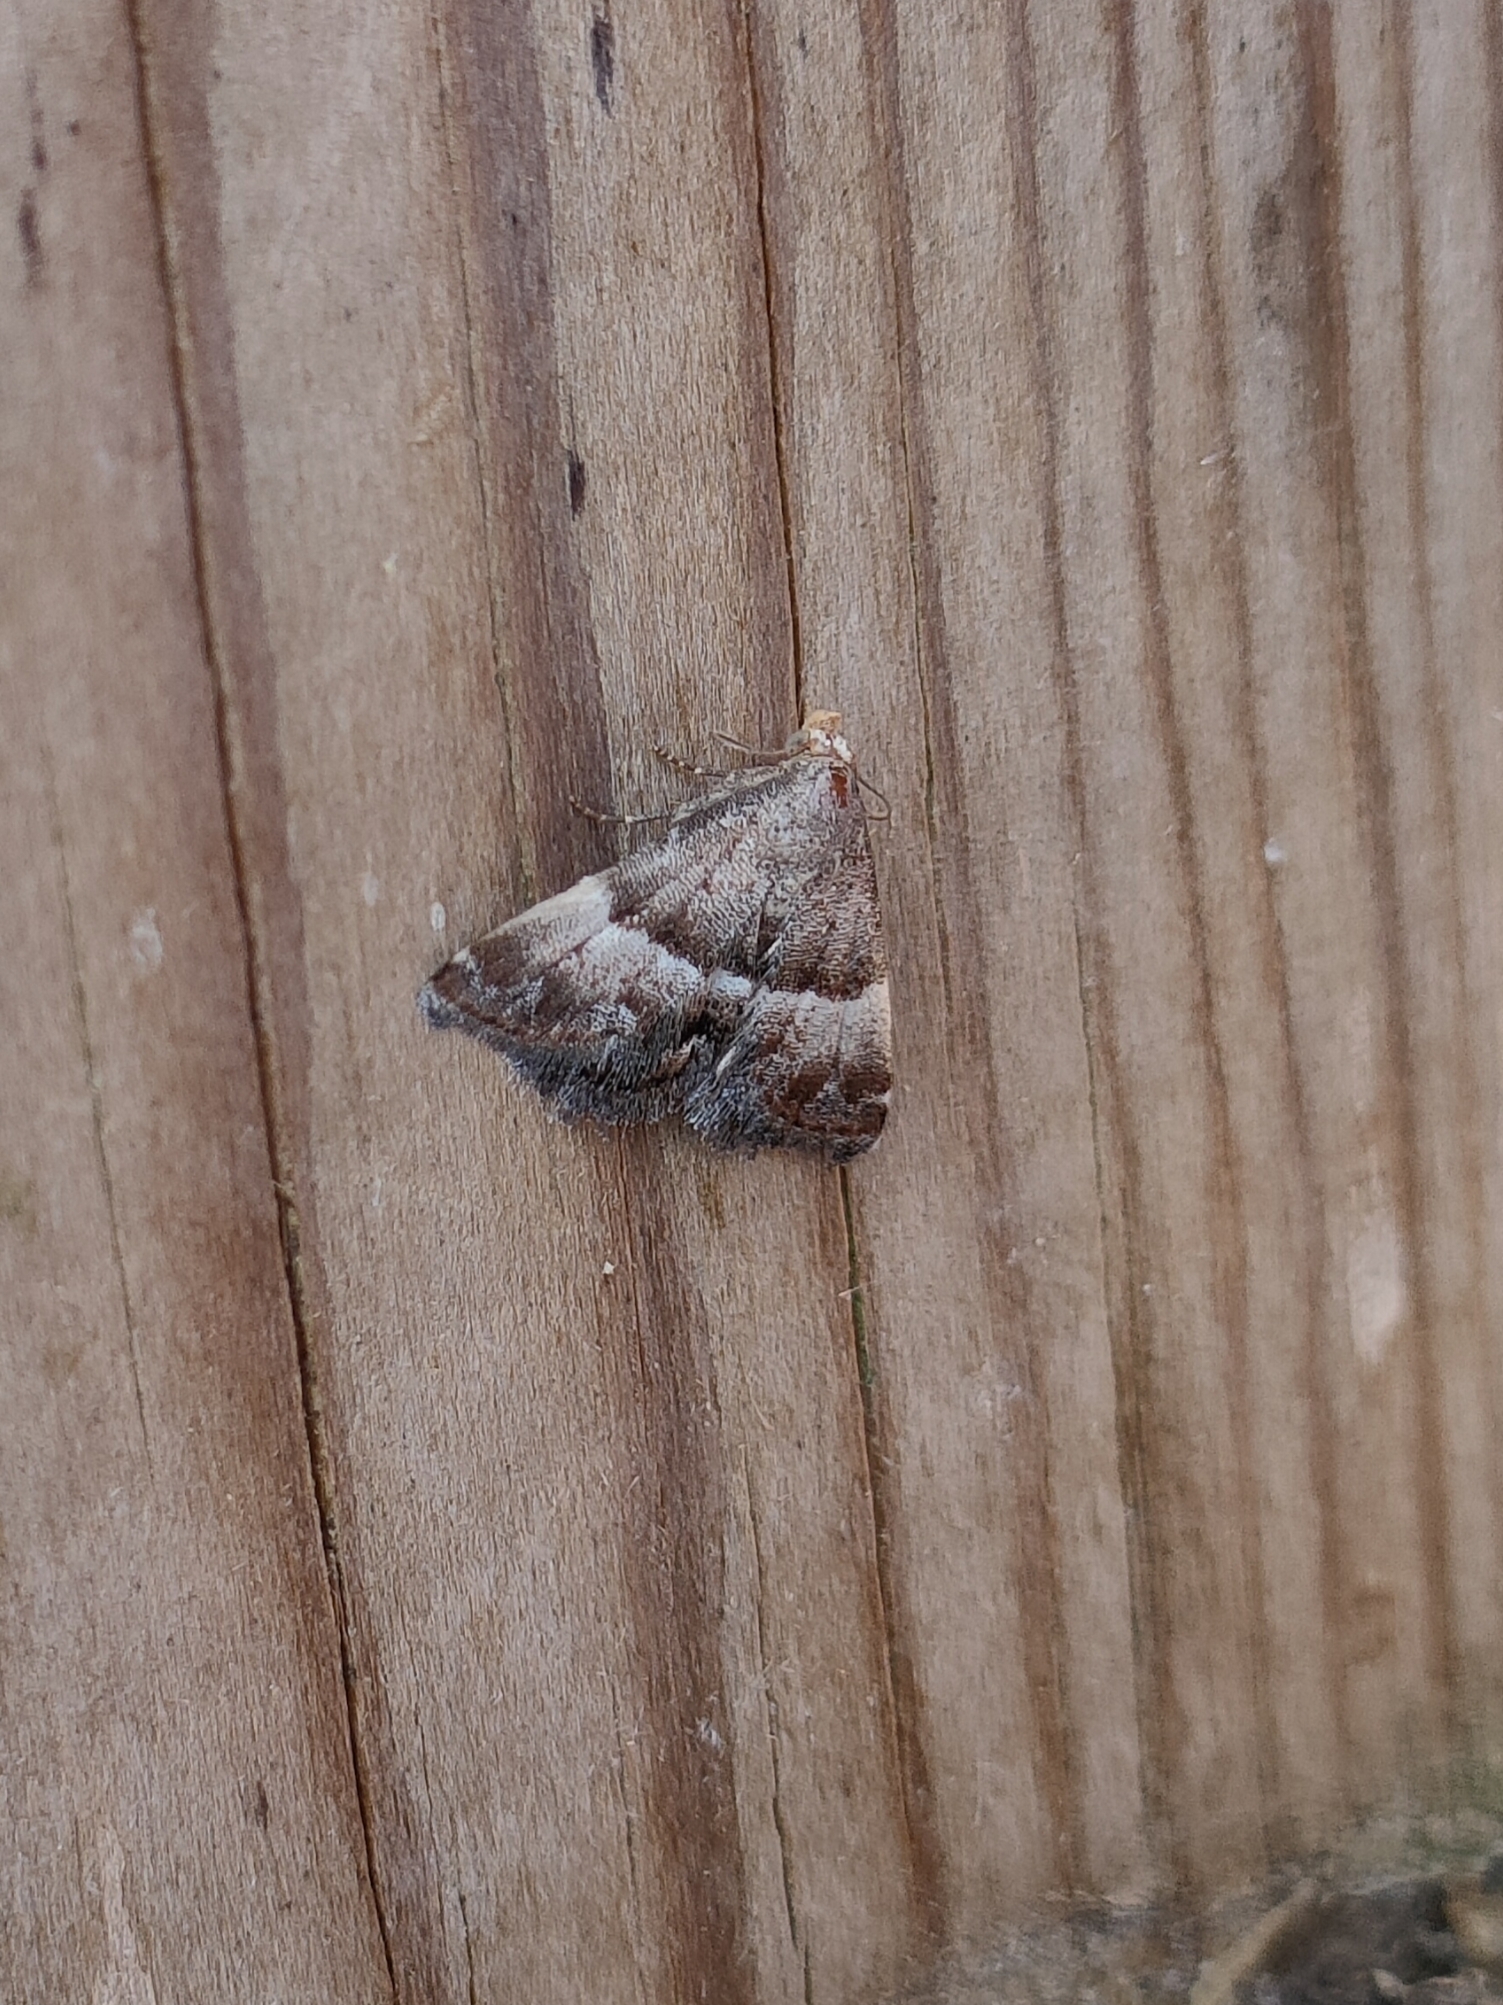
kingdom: Animalia
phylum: Arthropoda
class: Insecta
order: Lepidoptera
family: Noctuidae
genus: Odice
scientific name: Odice jucunda
